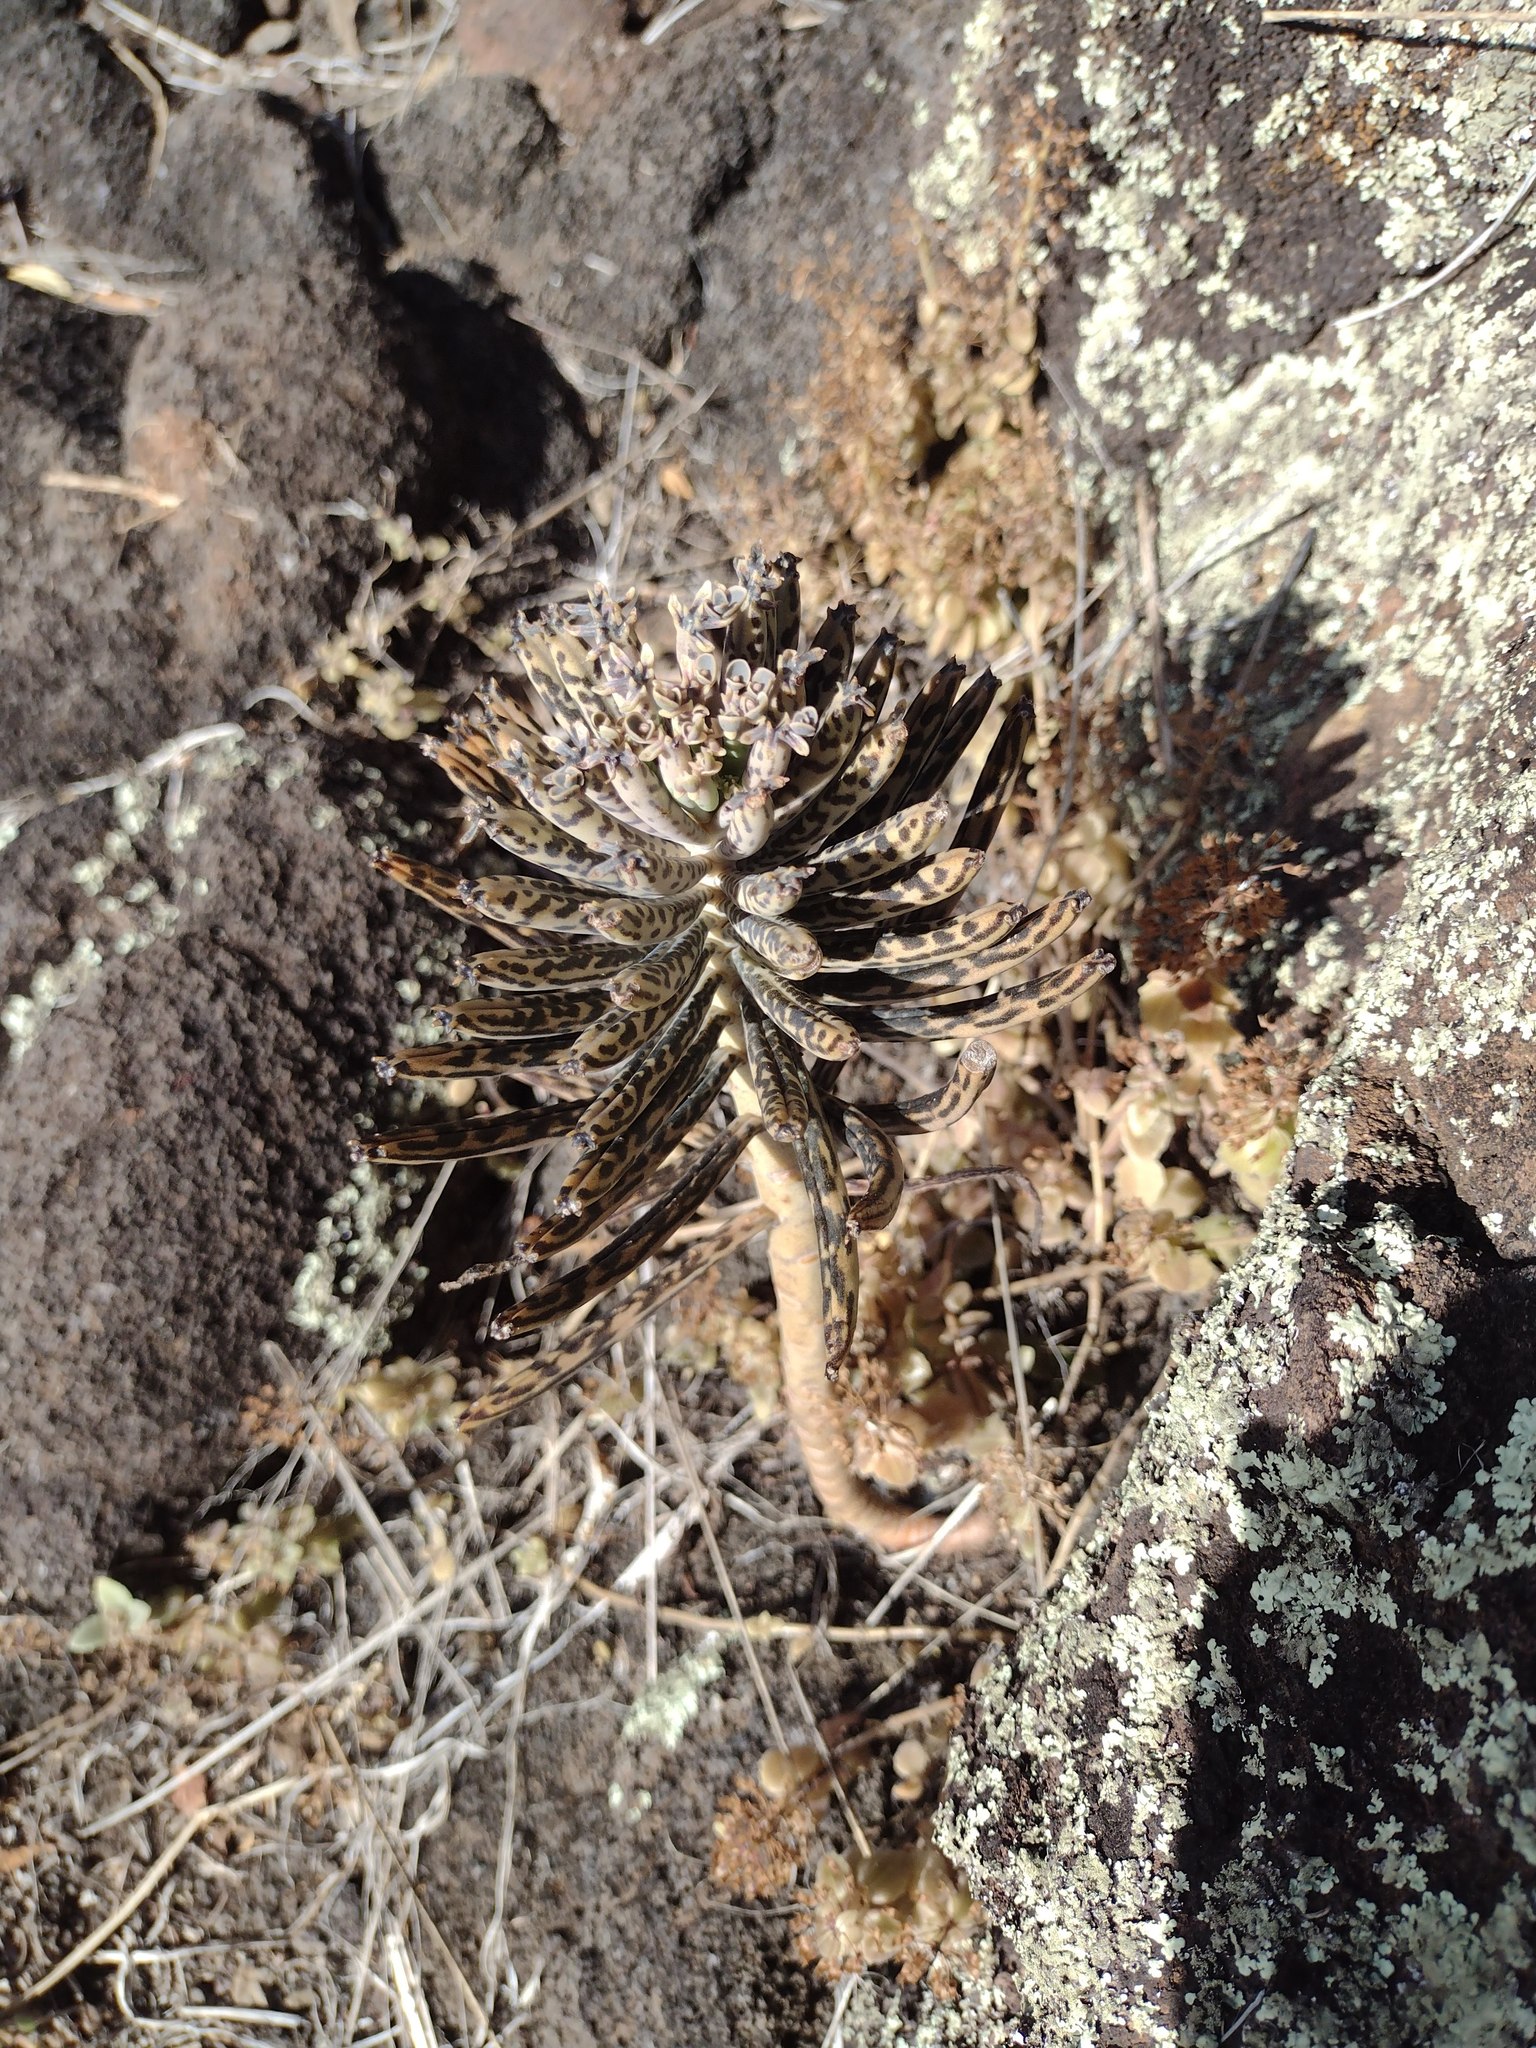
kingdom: Plantae
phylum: Tracheophyta
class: Magnoliopsida
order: Saxifragales
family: Crassulaceae
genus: Kalanchoe
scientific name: Kalanchoe delagoensis
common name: Chandelier plant
